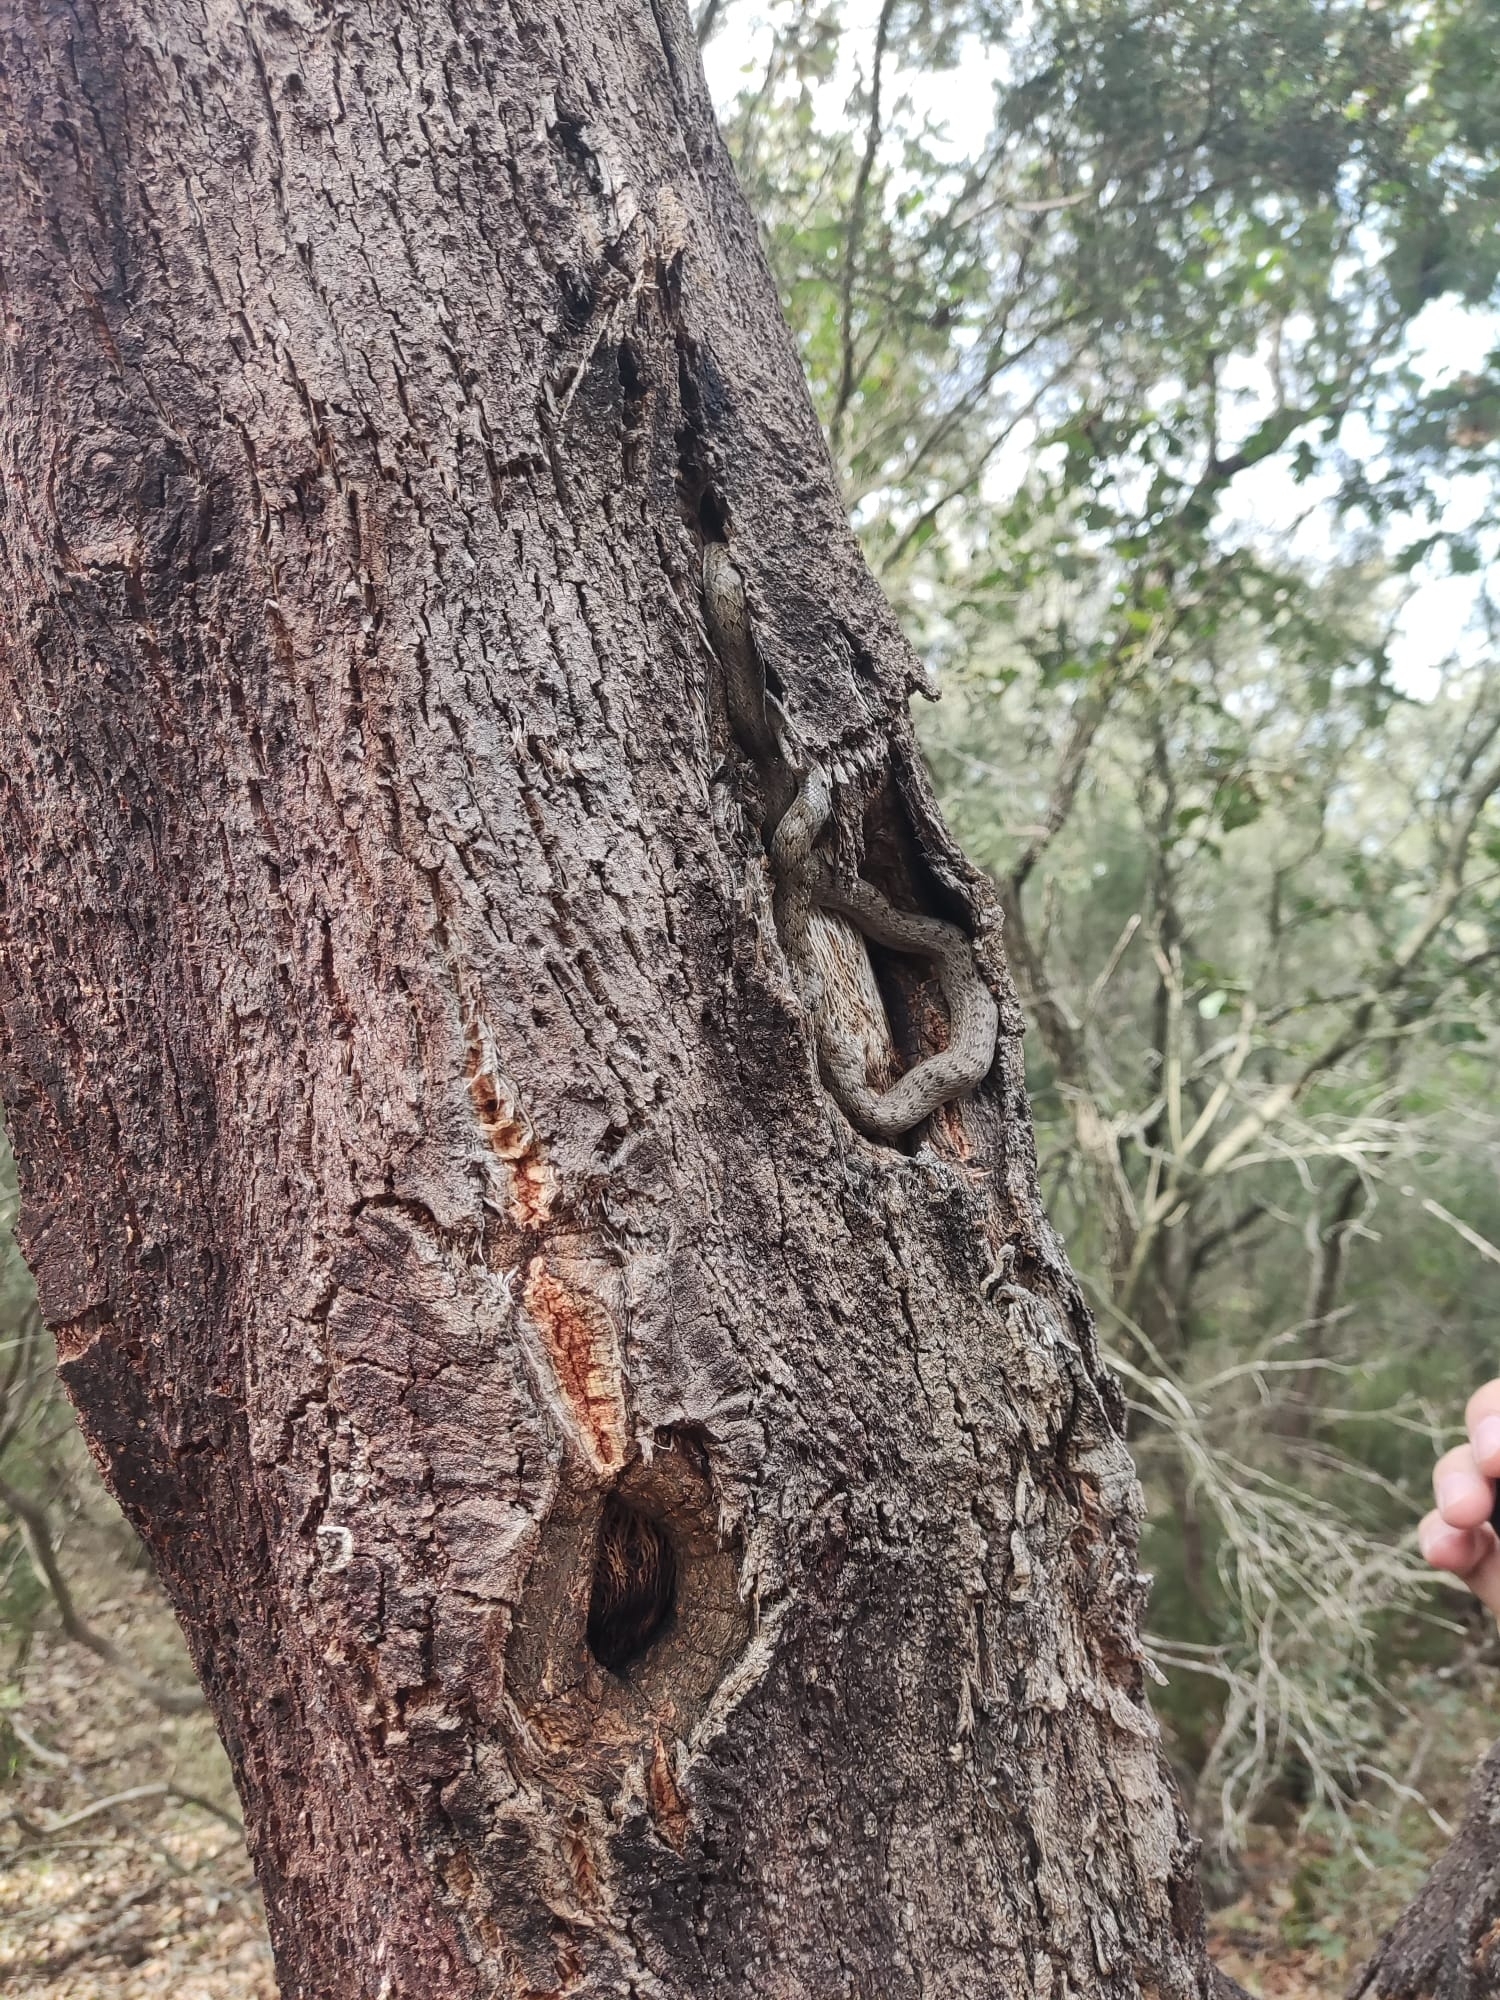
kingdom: Animalia
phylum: Chordata
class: Squamata
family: Colubridae
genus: Coronella
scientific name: Coronella austriaca
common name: Smooth snake
